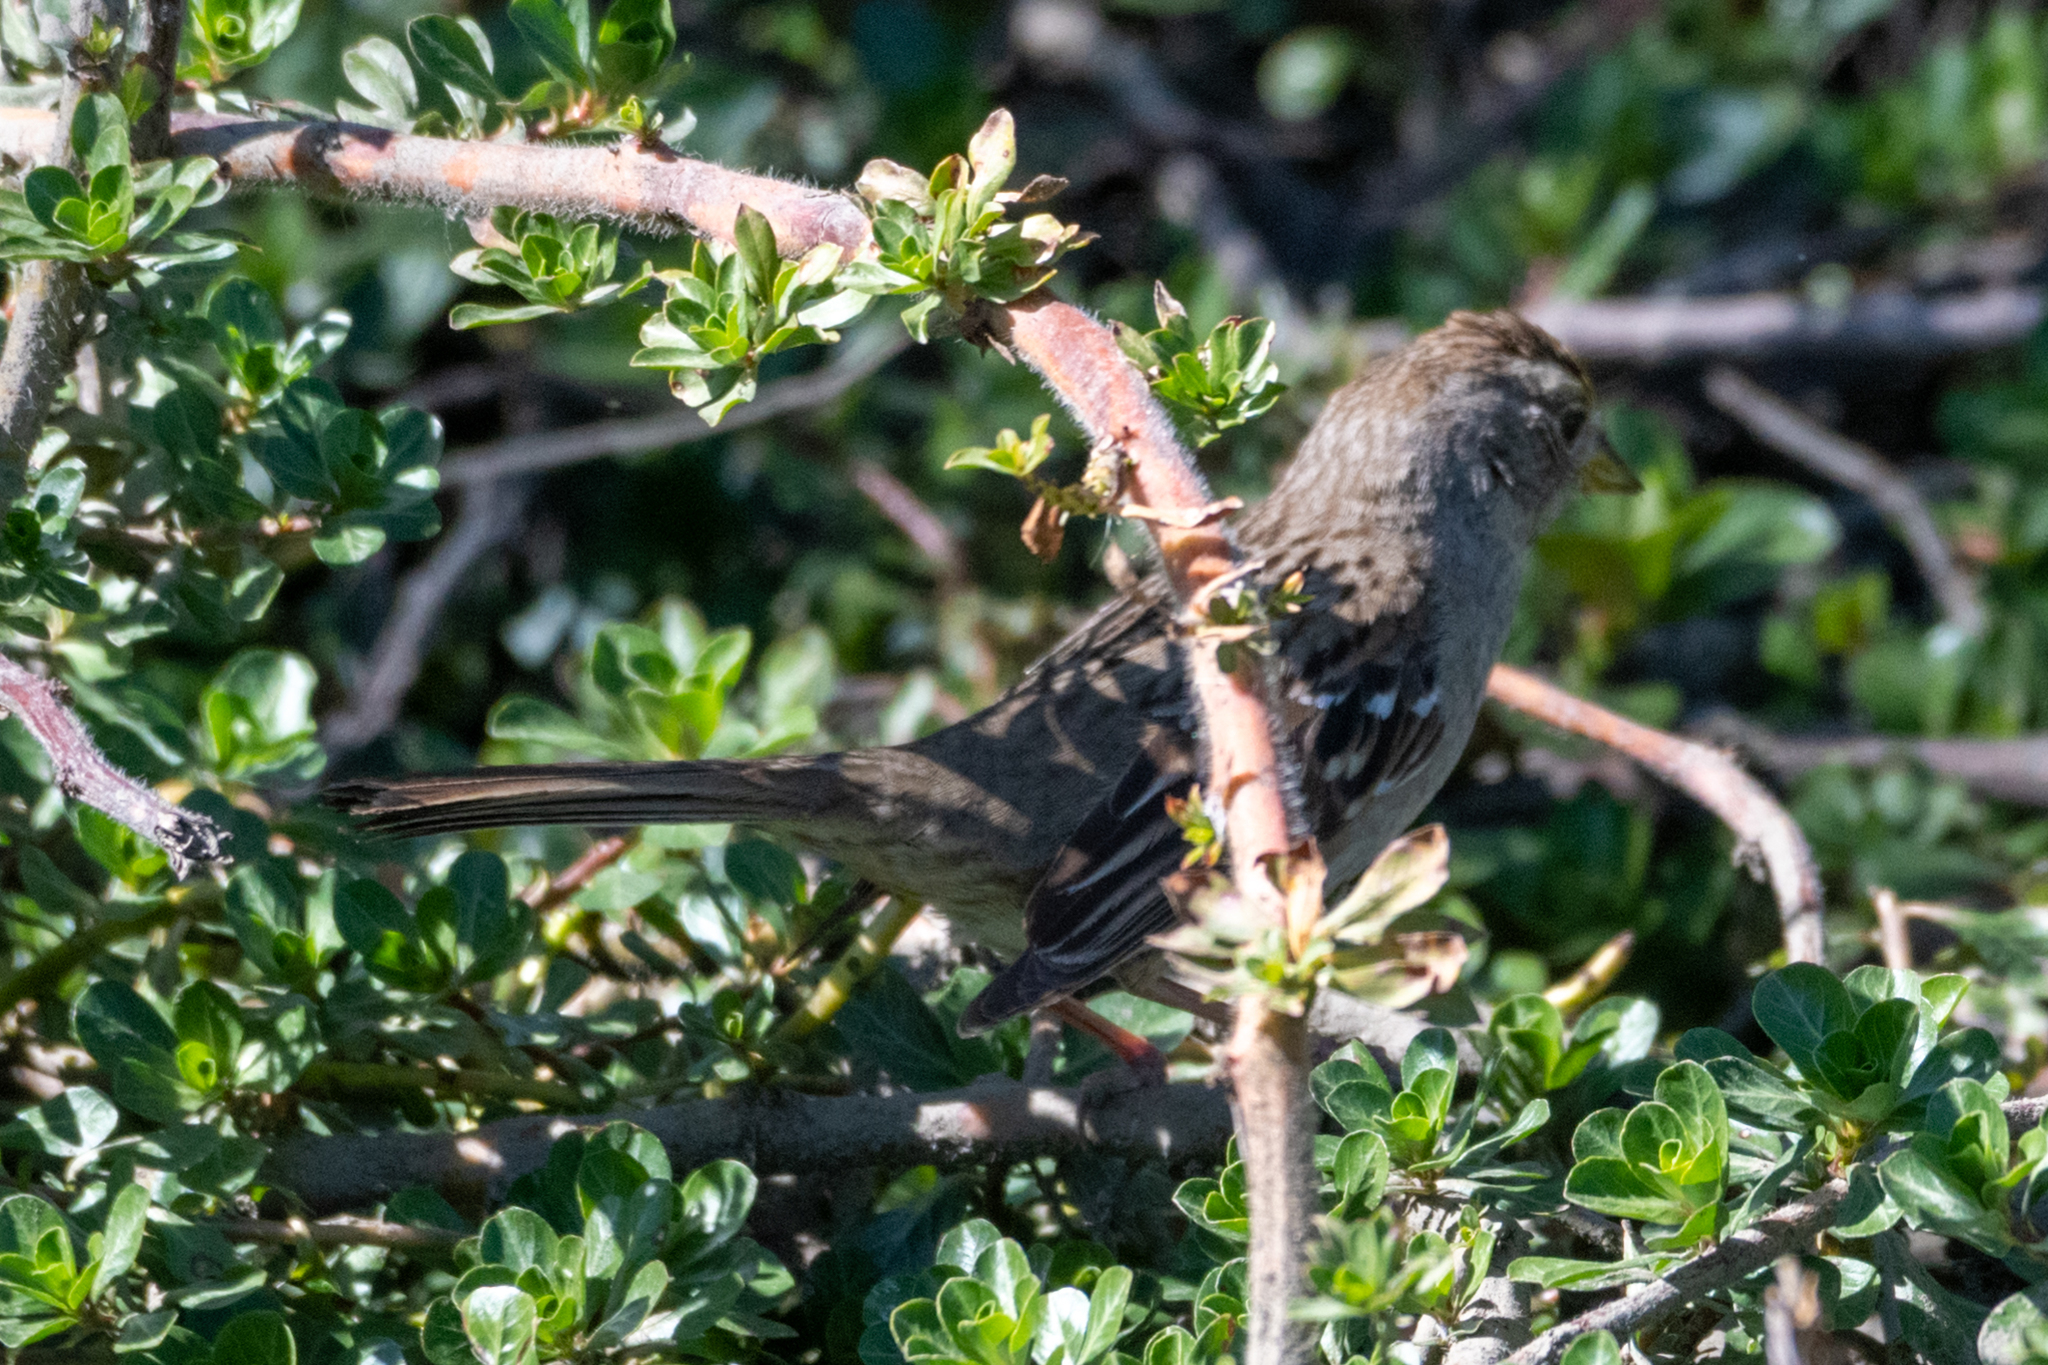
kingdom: Animalia
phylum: Chordata
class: Aves
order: Passeriformes
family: Passerellidae
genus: Zonotrichia
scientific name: Zonotrichia atricapilla
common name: Golden-crowned sparrow
